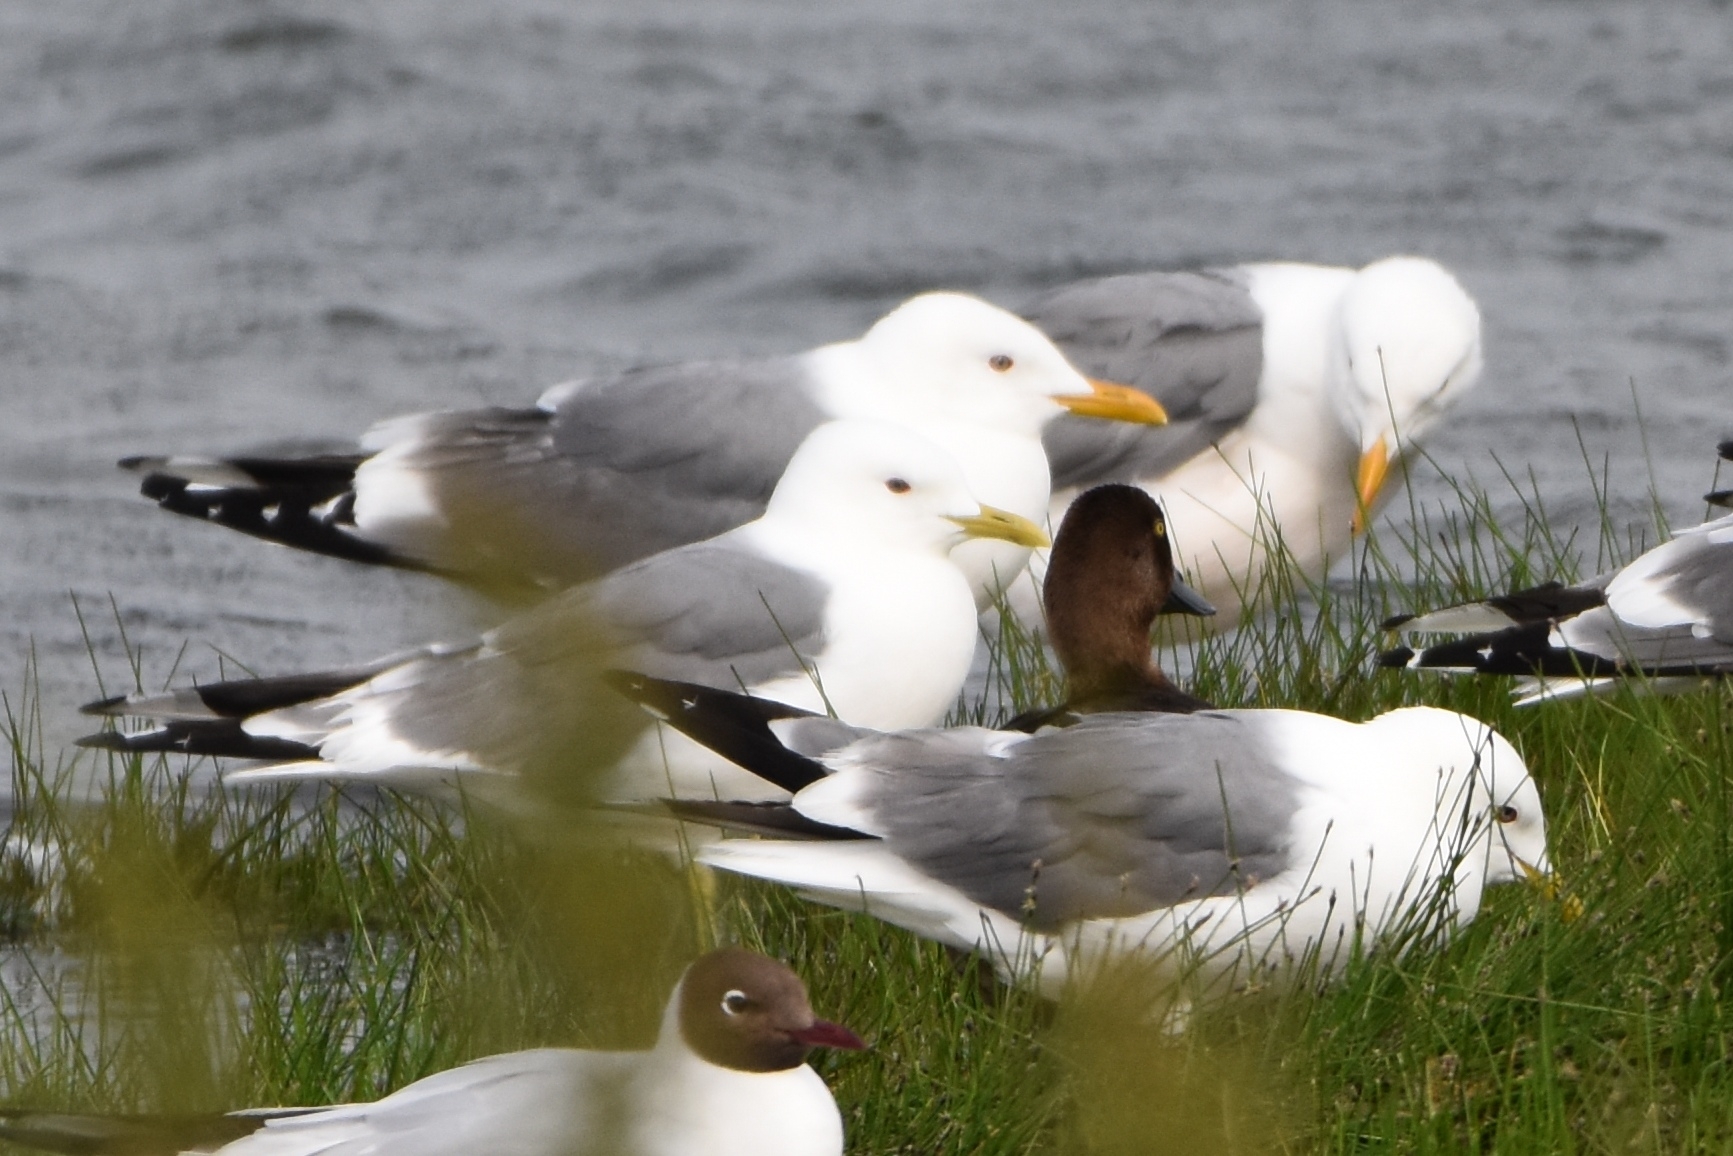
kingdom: Animalia
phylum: Chordata
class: Aves
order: Charadriiformes
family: Laridae
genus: Larus
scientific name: Larus canus
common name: Mew gull
